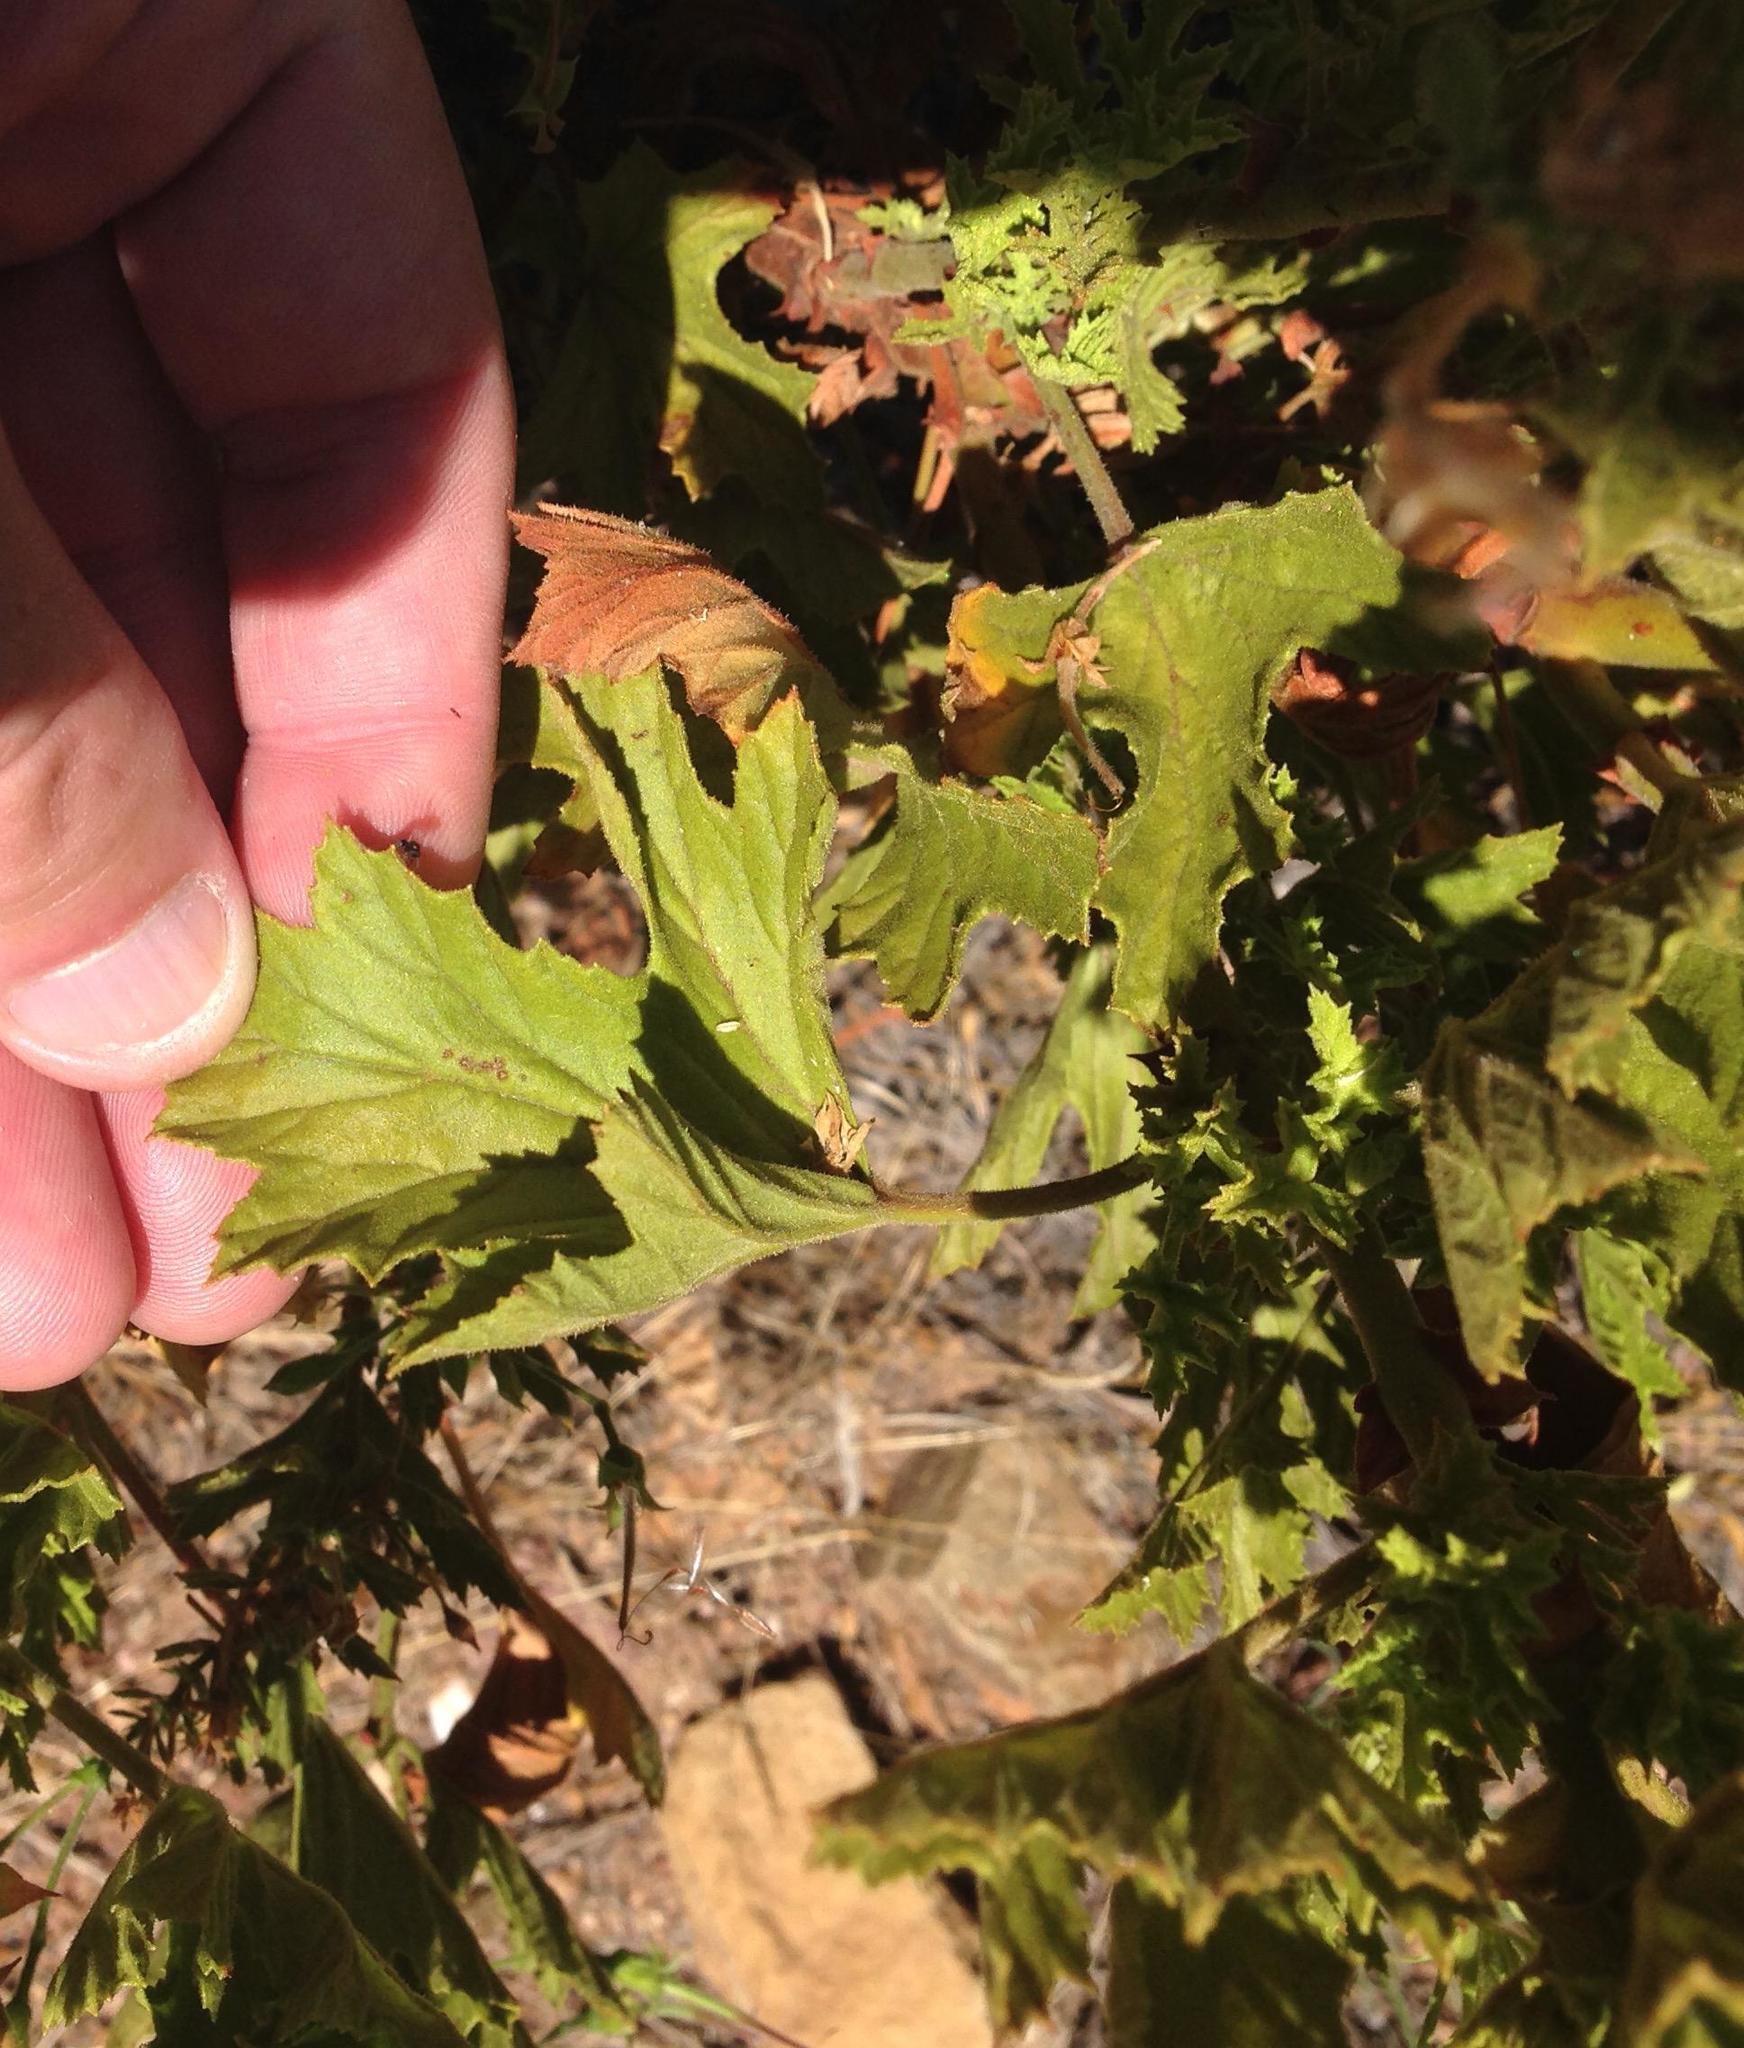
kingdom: Plantae
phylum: Tracheophyta
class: Magnoliopsida
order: Geraniales
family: Geraniaceae
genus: Pelargonium
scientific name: Pelargonium ribifolium
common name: Currant-leaf pelargonium
